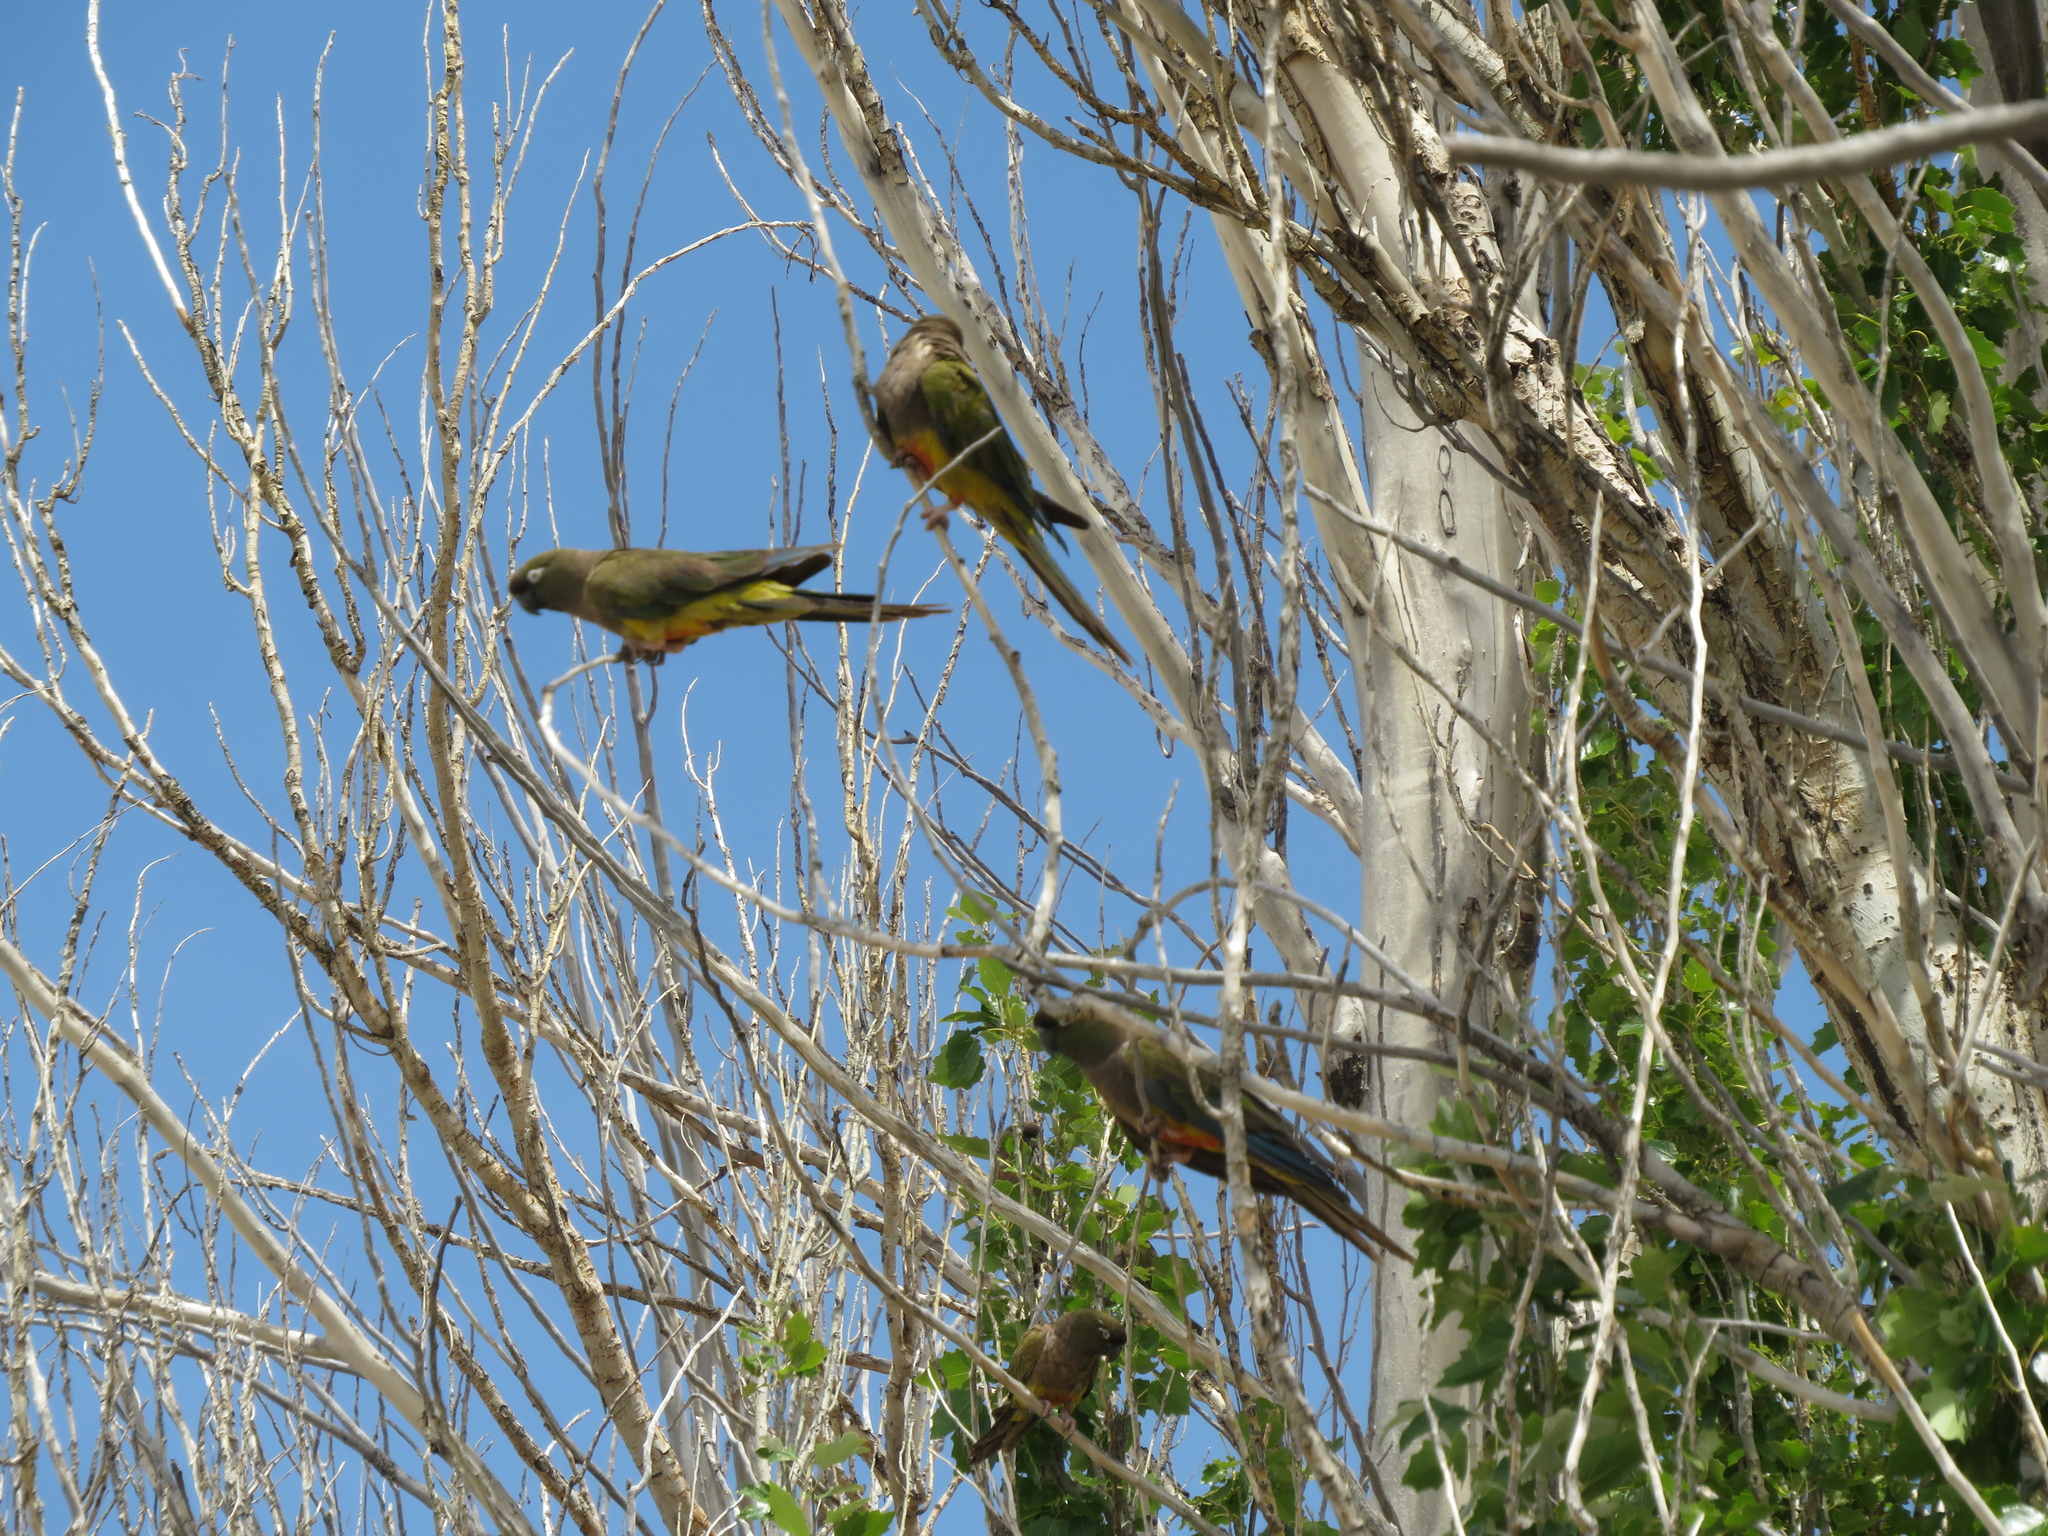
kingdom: Animalia
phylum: Chordata
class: Aves
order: Psittaciformes
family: Psittacidae
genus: Cyanoliseus
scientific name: Cyanoliseus patagonus
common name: Burrowing parrot
